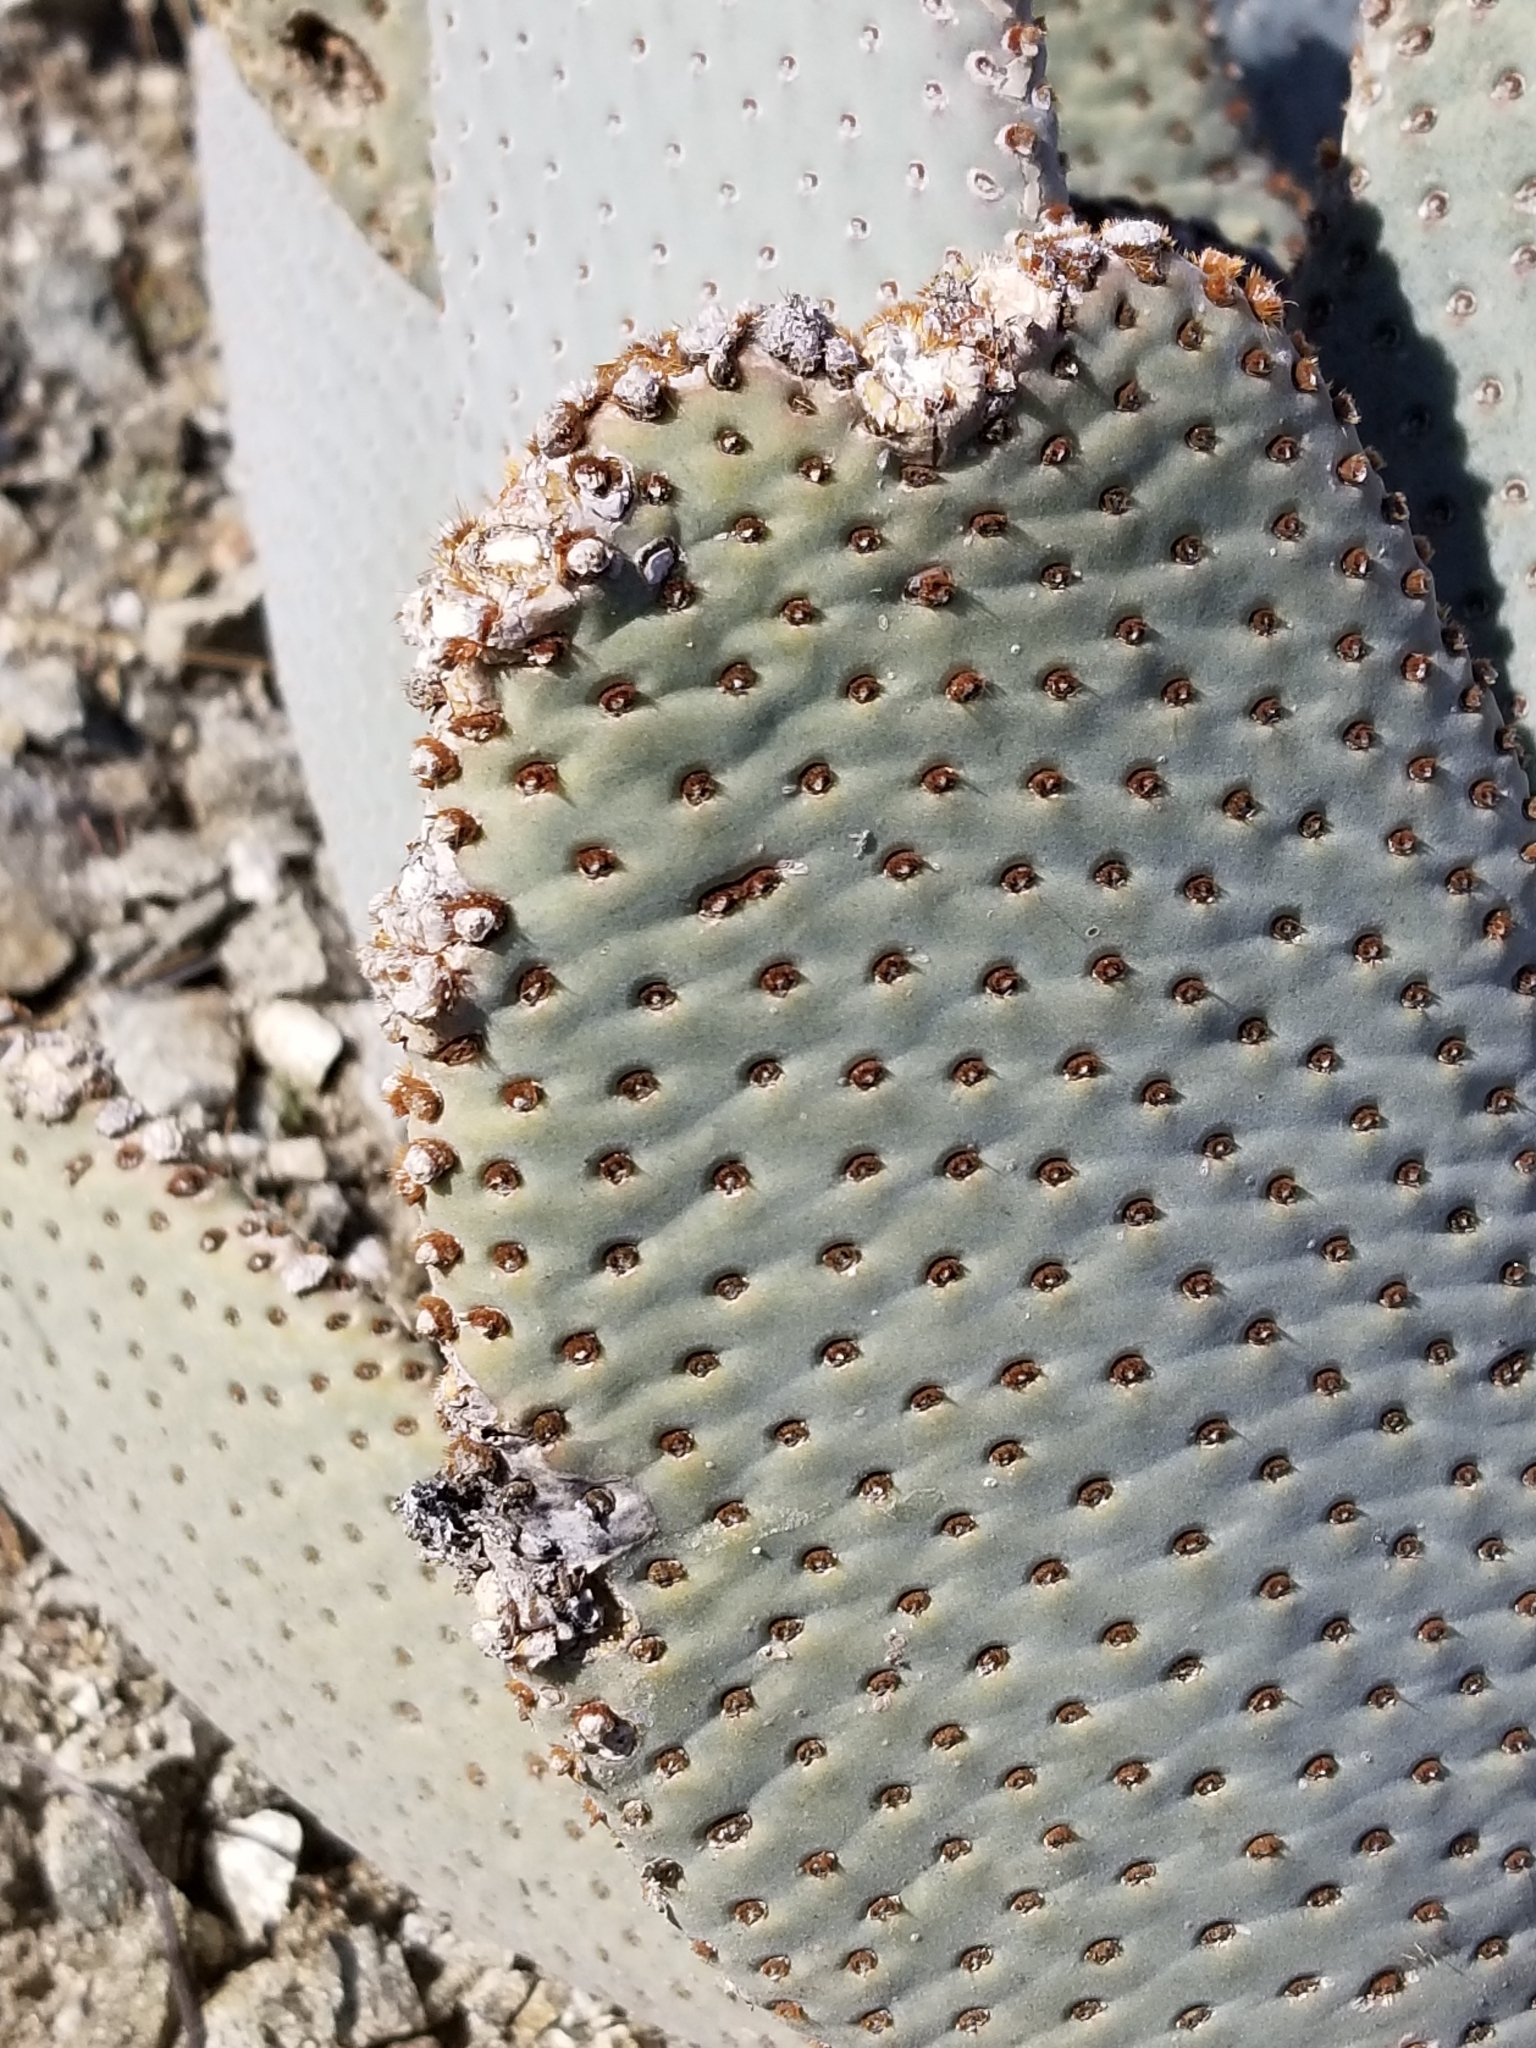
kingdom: Plantae
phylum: Tracheophyta
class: Magnoliopsida
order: Caryophyllales
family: Cactaceae
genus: Opuntia
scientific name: Opuntia basilaris
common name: Beavertail prickly-pear
